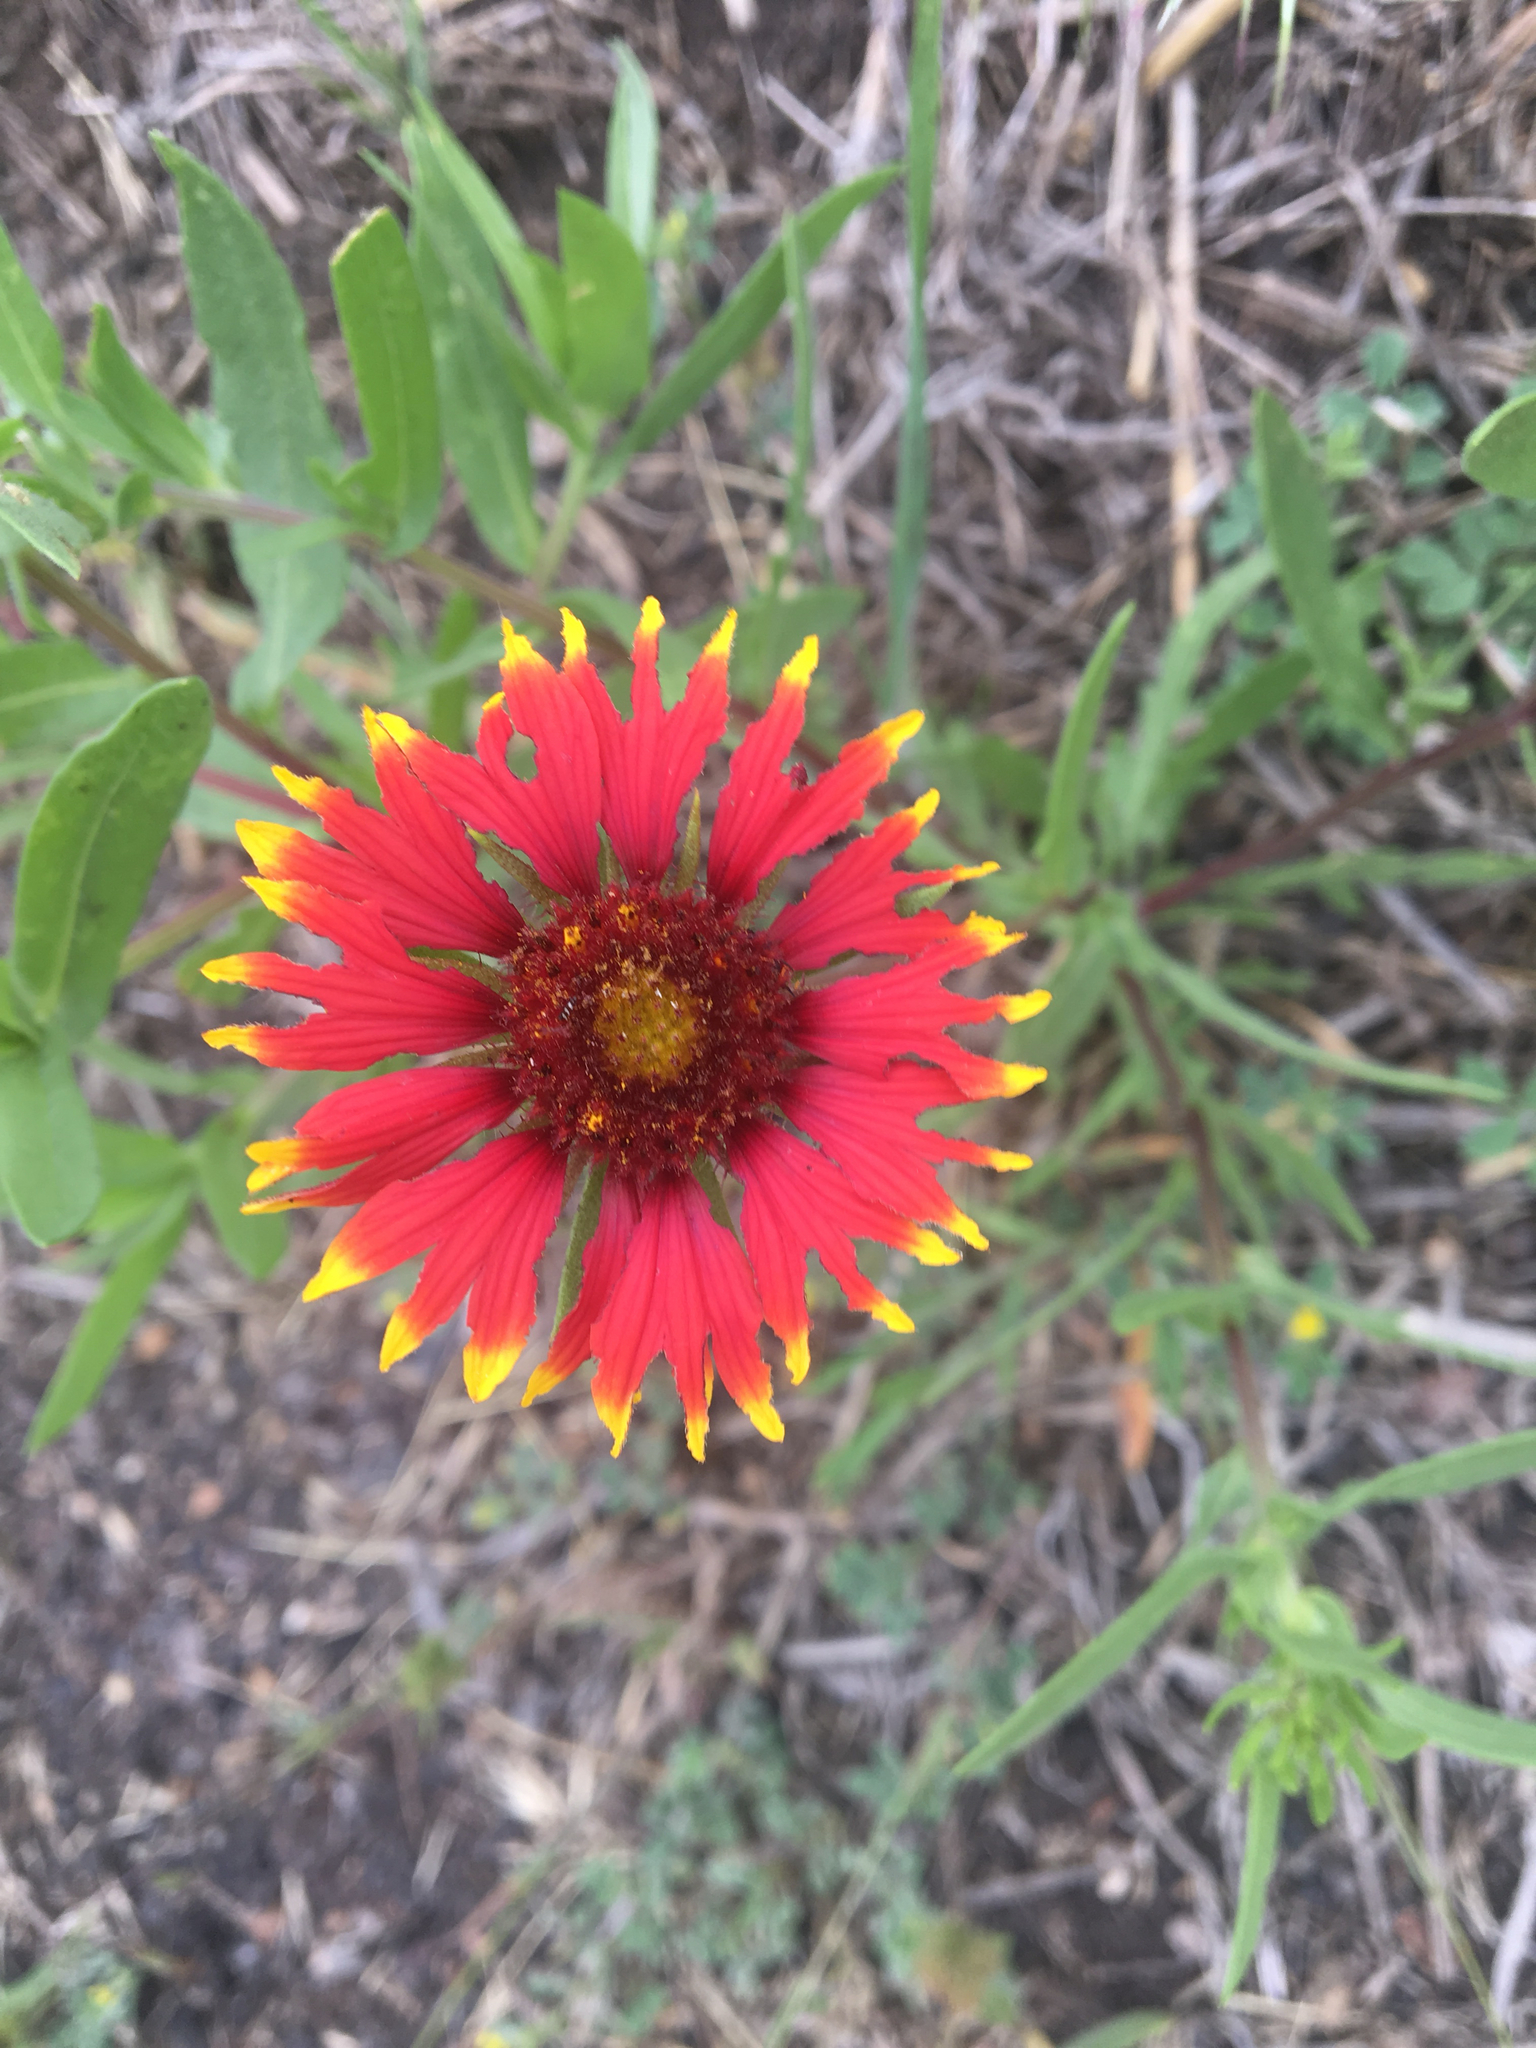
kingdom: Plantae
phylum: Tracheophyta
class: Magnoliopsida
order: Asterales
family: Asteraceae
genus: Gaillardia
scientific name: Gaillardia pulchella
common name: Firewheel
